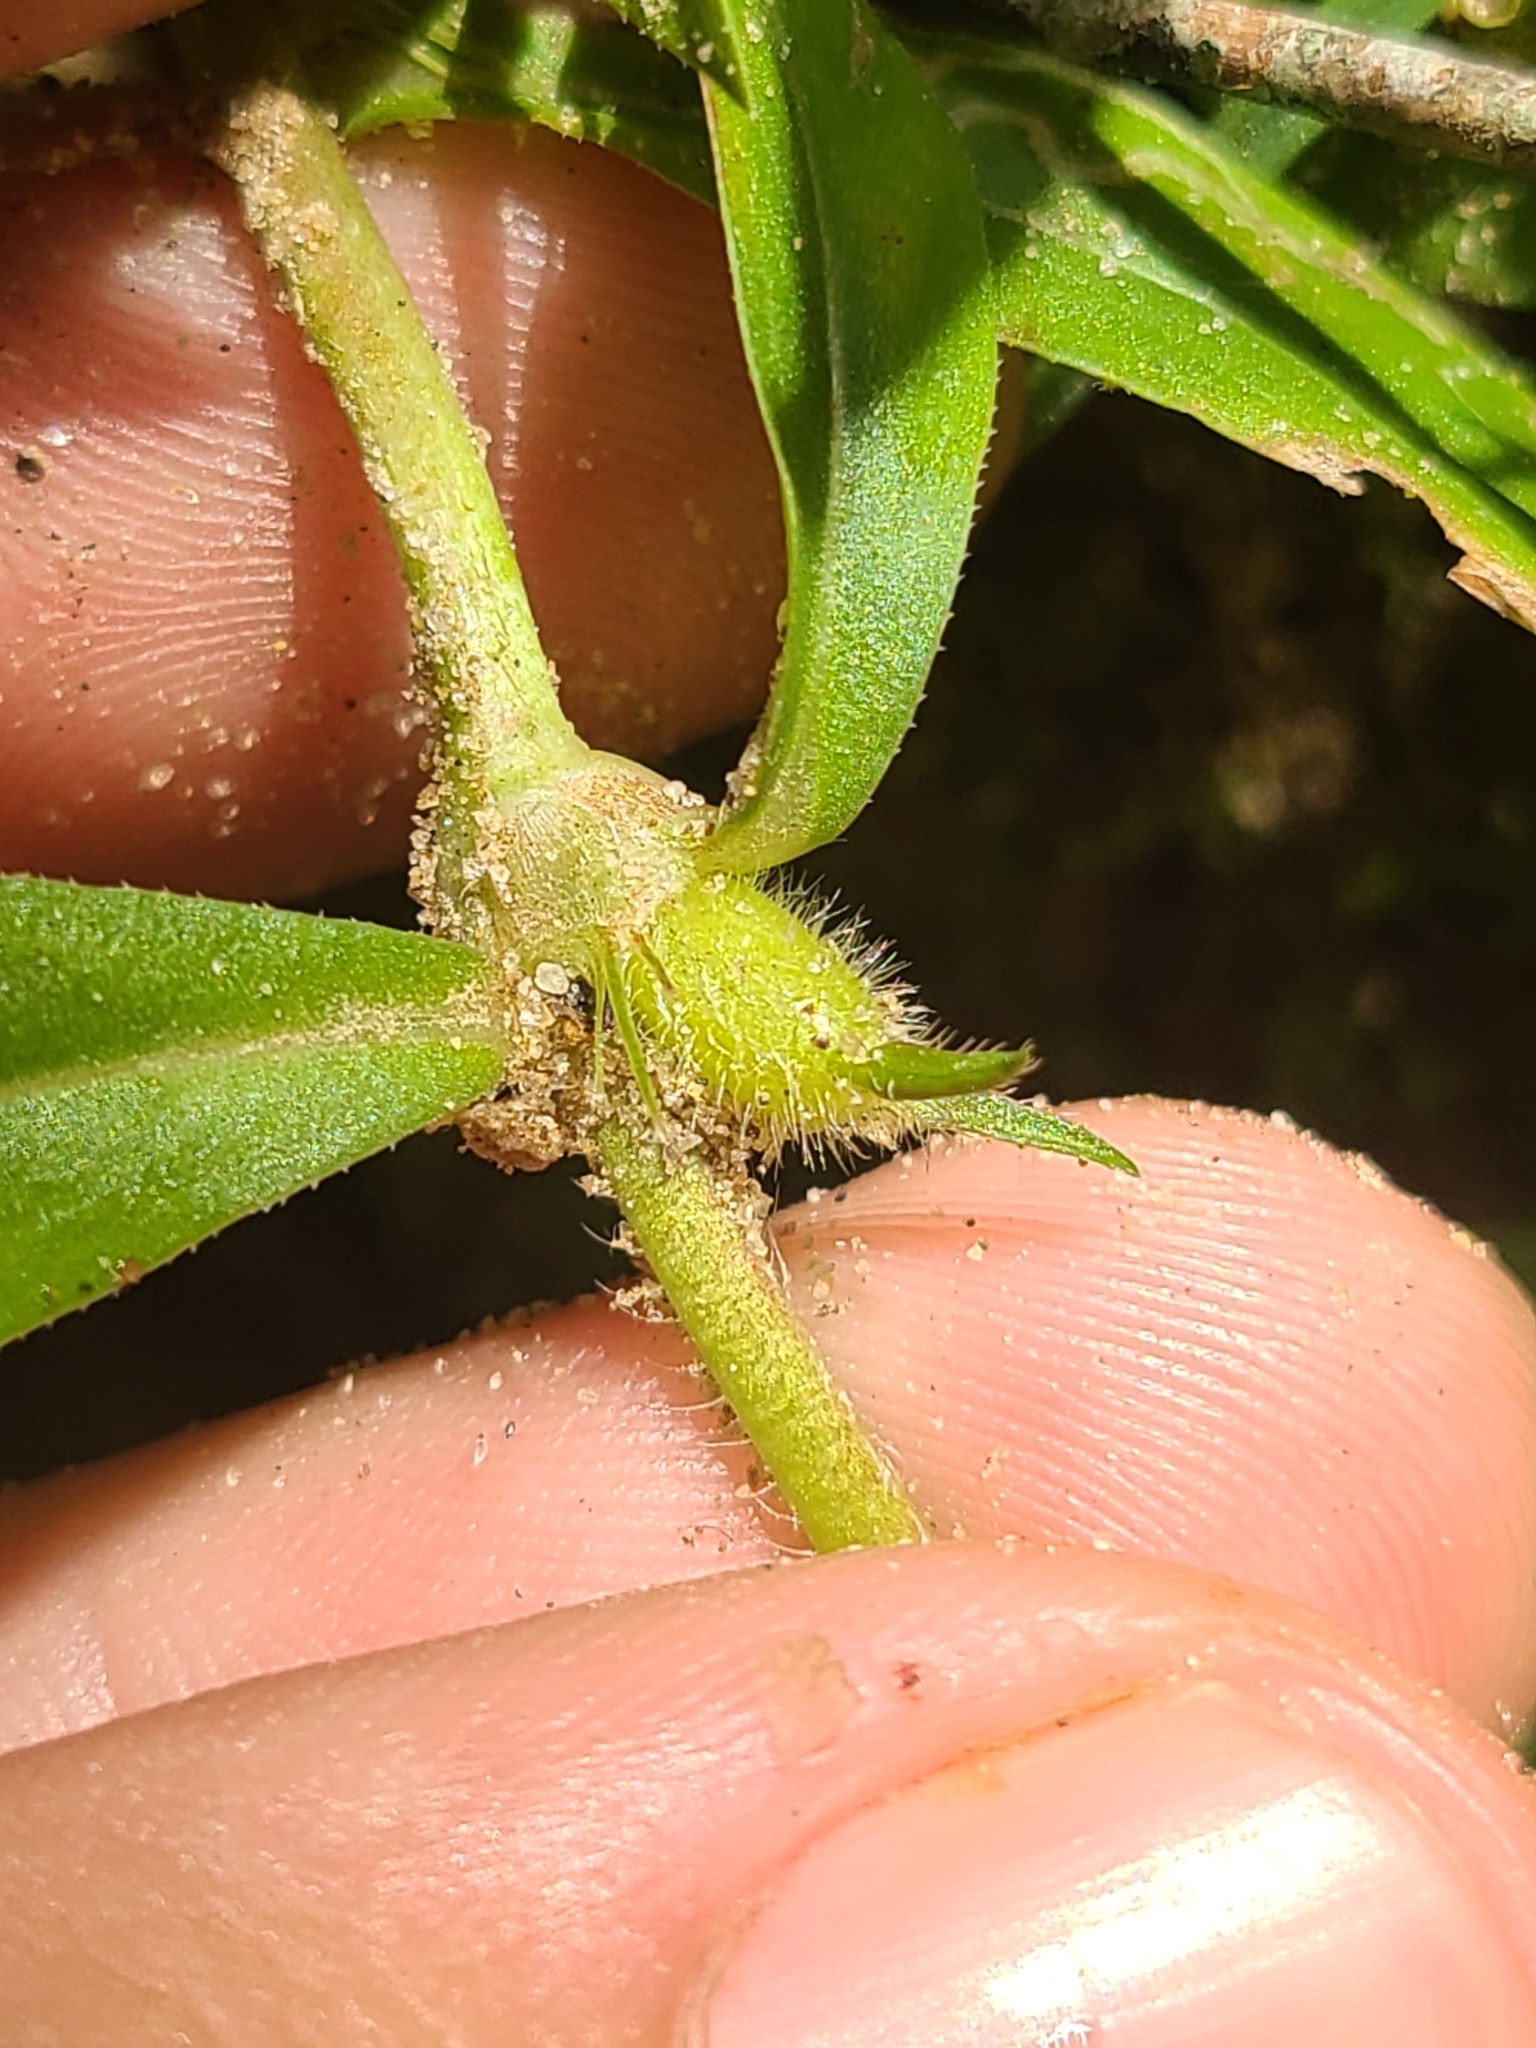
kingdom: Plantae
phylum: Tracheophyta
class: Magnoliopsida
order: Gentianales
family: Rubiaceae
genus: Diodia
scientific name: Diodia virginiana
